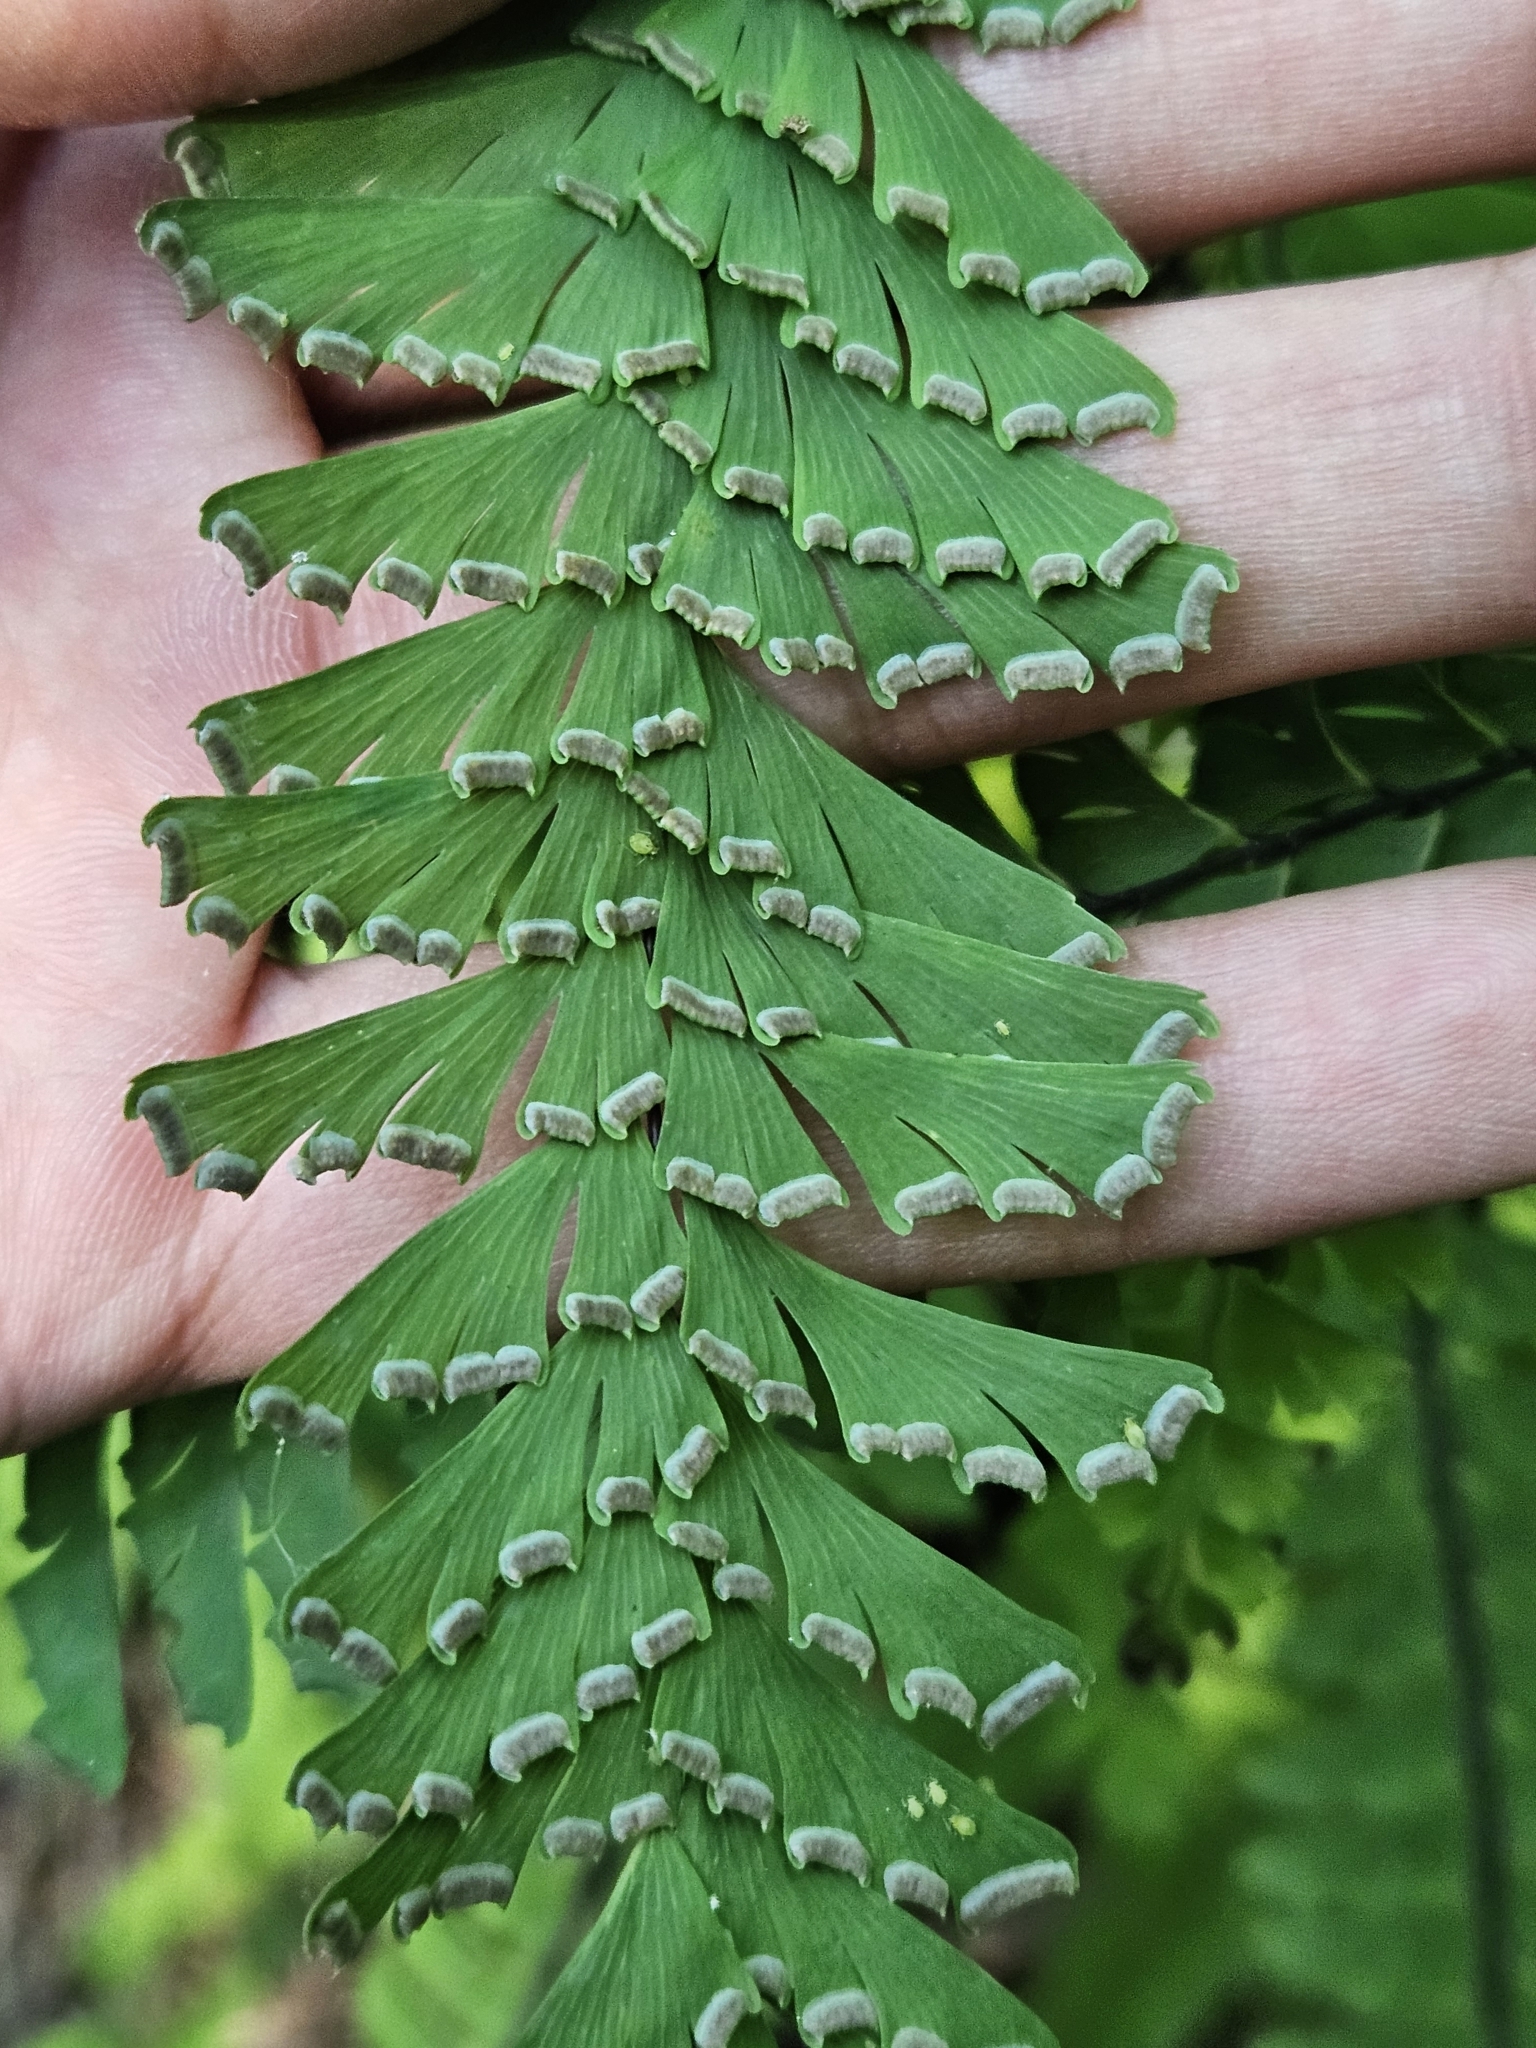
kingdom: Plantae
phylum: Tracheophyta
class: Polypodiopsida
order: Polypodiales
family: Pteridaceae
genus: Adiantum
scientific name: Adiantum aleuticum
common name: Aleutian maidenhair fern
